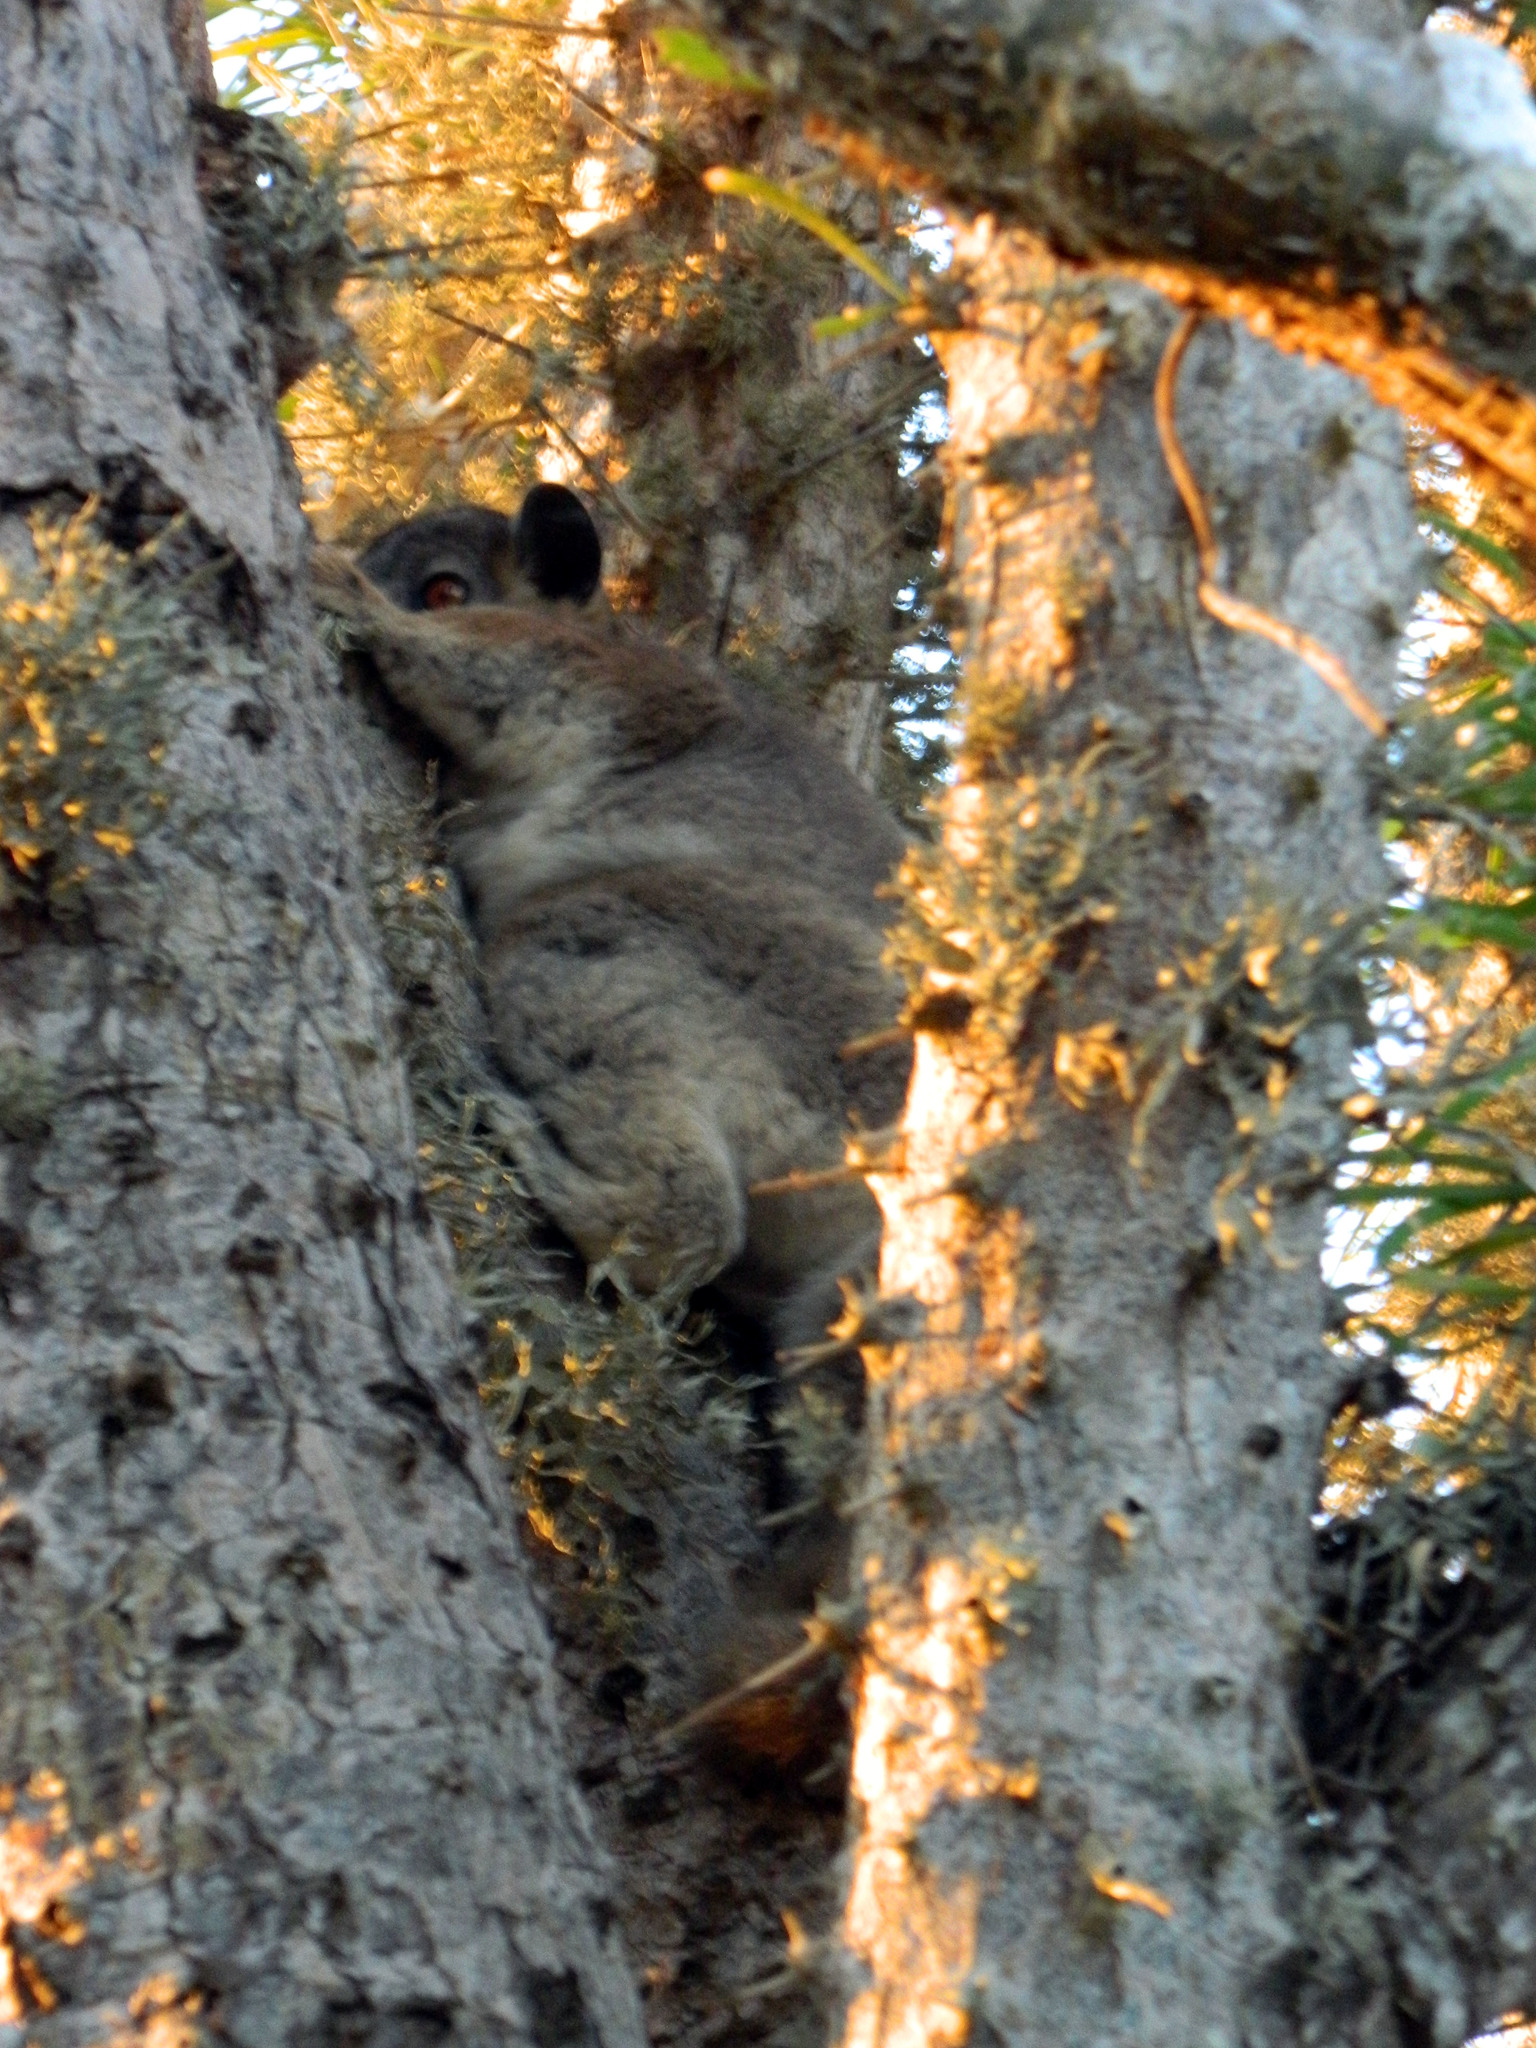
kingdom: Animalia
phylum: Chordata
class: Mammalia
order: Primates
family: Lepilemuridae
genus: Lepilemur
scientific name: Lepilemur petteri
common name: Petter's sportive lemur
